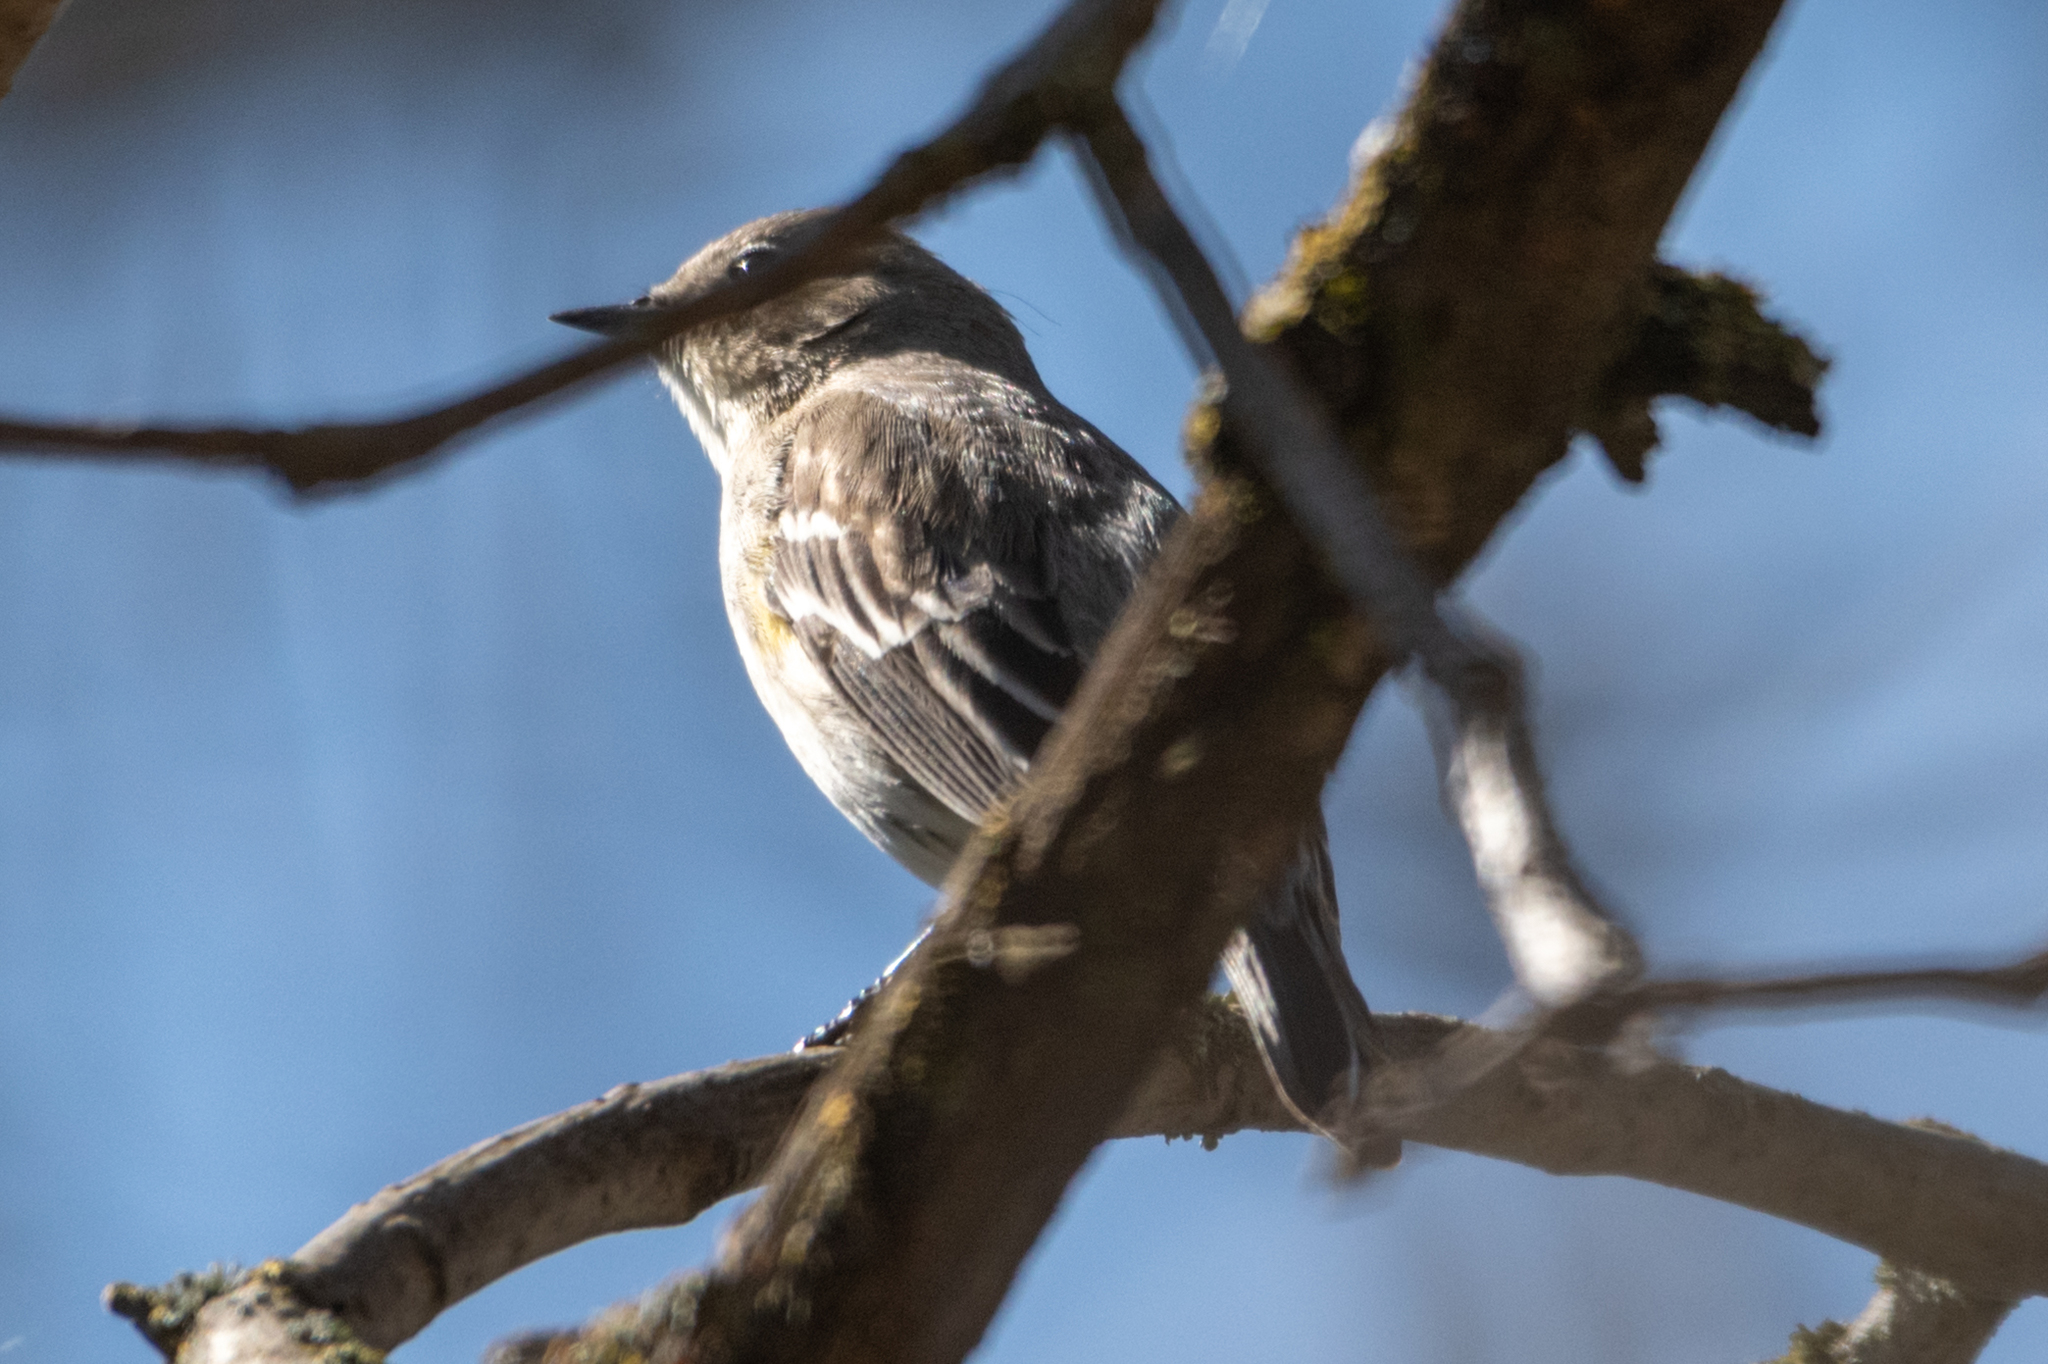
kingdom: Animalia
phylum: Chordata
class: Aves
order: Passeriformes
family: Parulidae
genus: Setophaga
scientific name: Setophaga coronata
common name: Myrtle warbler
